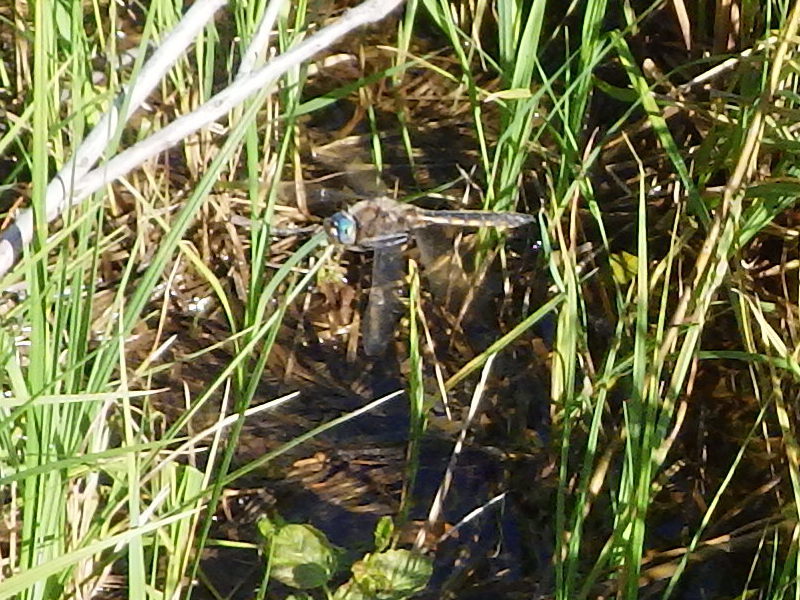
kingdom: Animalia
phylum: Arthropoda
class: Insecta
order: Odonata
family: Corduliidae
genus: Epitheca
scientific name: Epitheca canis
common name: Beaverpond baskettail
